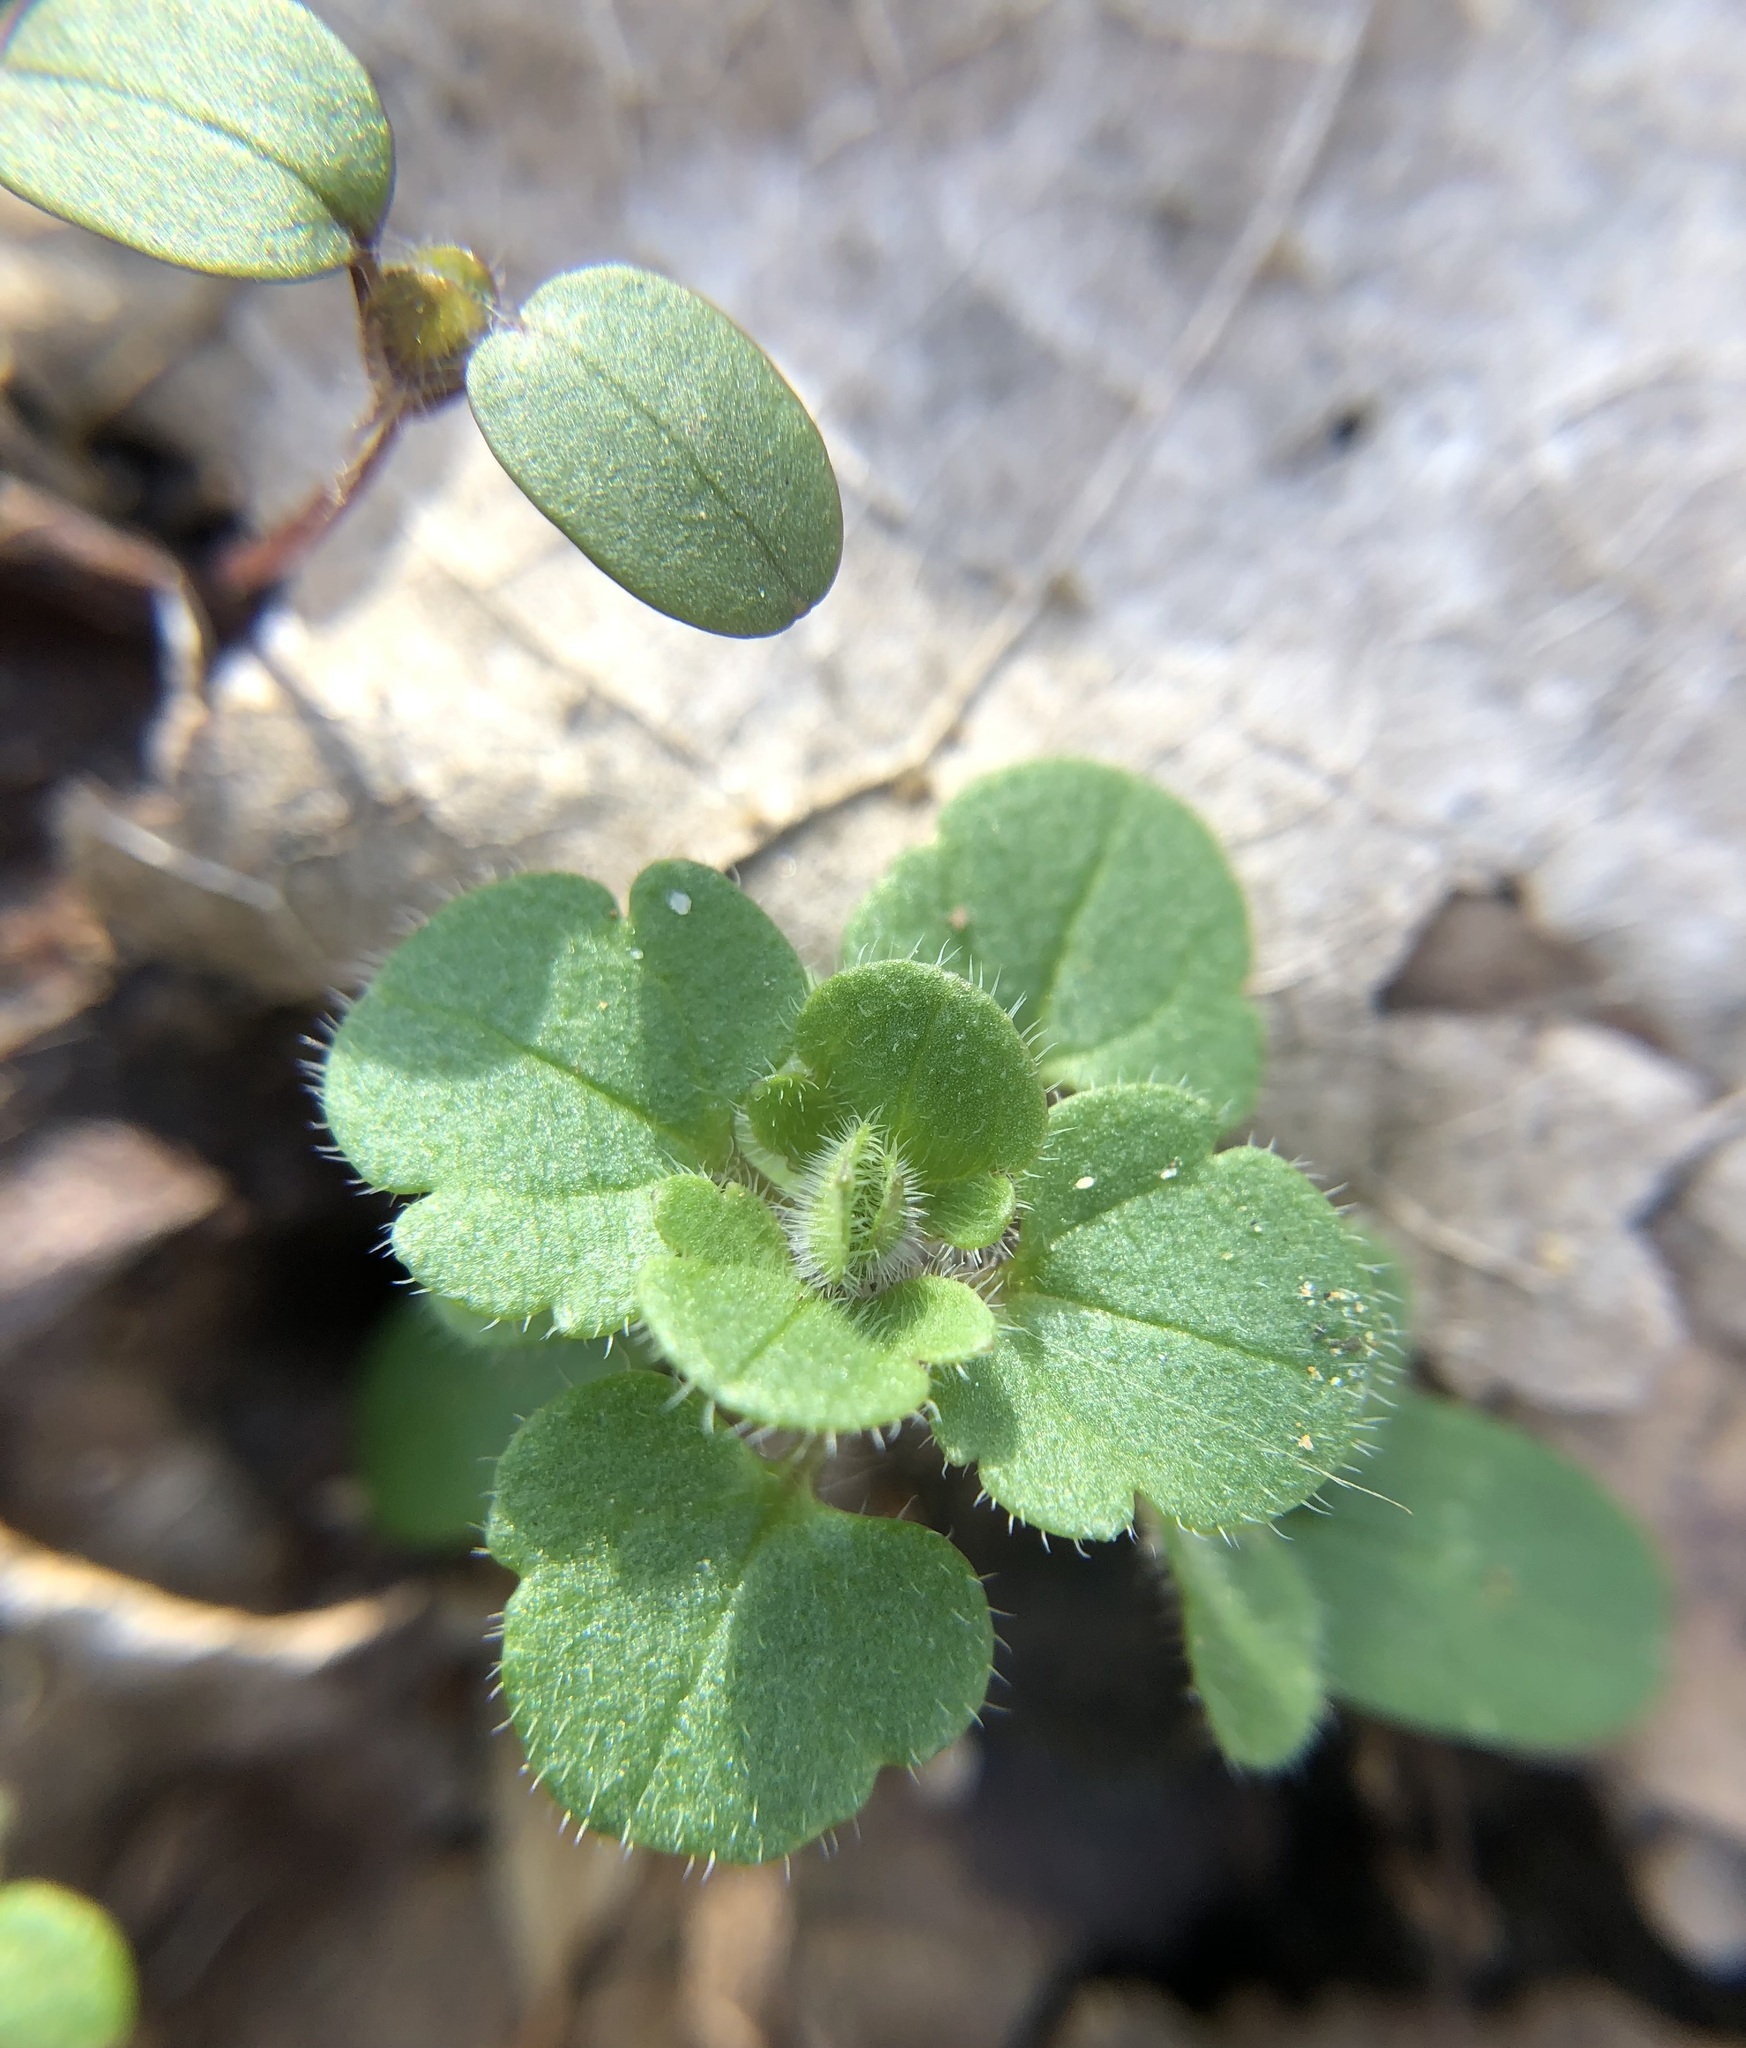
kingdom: Plantae
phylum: Tracheophyta
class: Magnoliopsida
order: Lamiales
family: Plantaginaceae
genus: Veronica
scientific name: Veronica hederifolia
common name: Ivy-leaved speedwell
